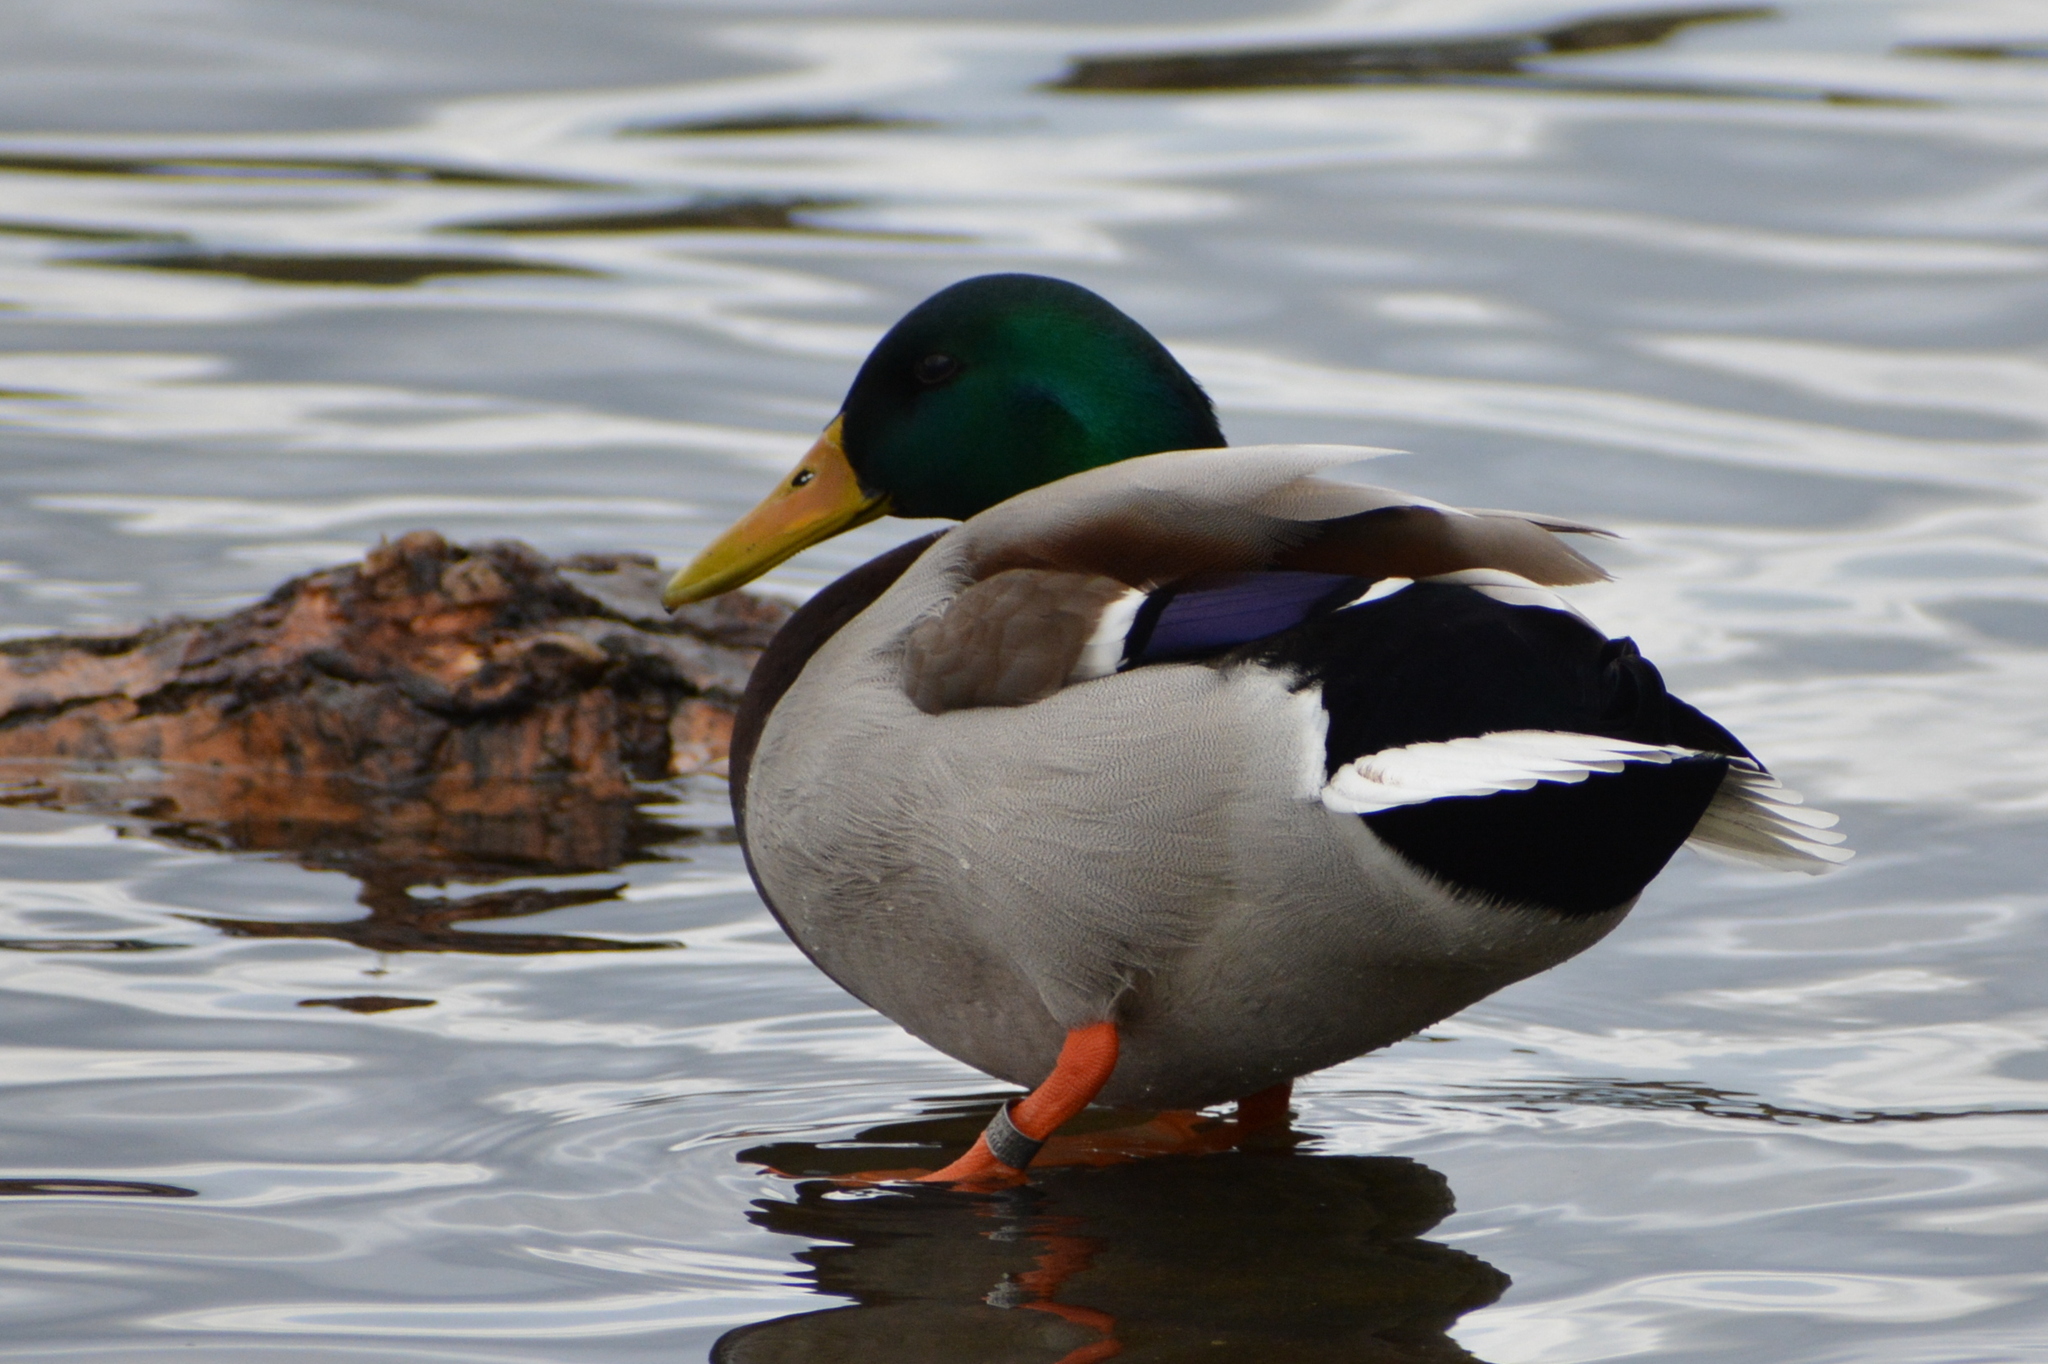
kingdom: Animalia
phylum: Chordata
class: Aves
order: Anseriformes
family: Anatidae
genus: Anas
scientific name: Anas platyrhynchos
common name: Mallard
